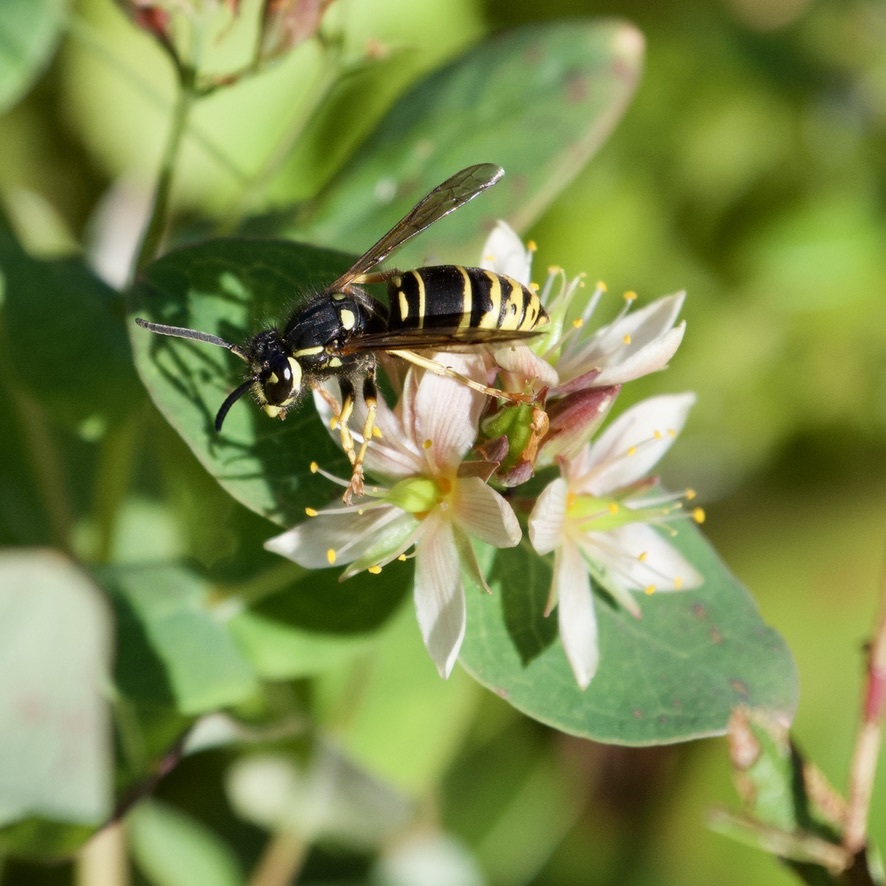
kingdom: Animalia
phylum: Arthropoda
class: Insecta
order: Hymenoptera
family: Vespidae
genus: Vespula
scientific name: Vespula vidua
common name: Widow yellowjacket
